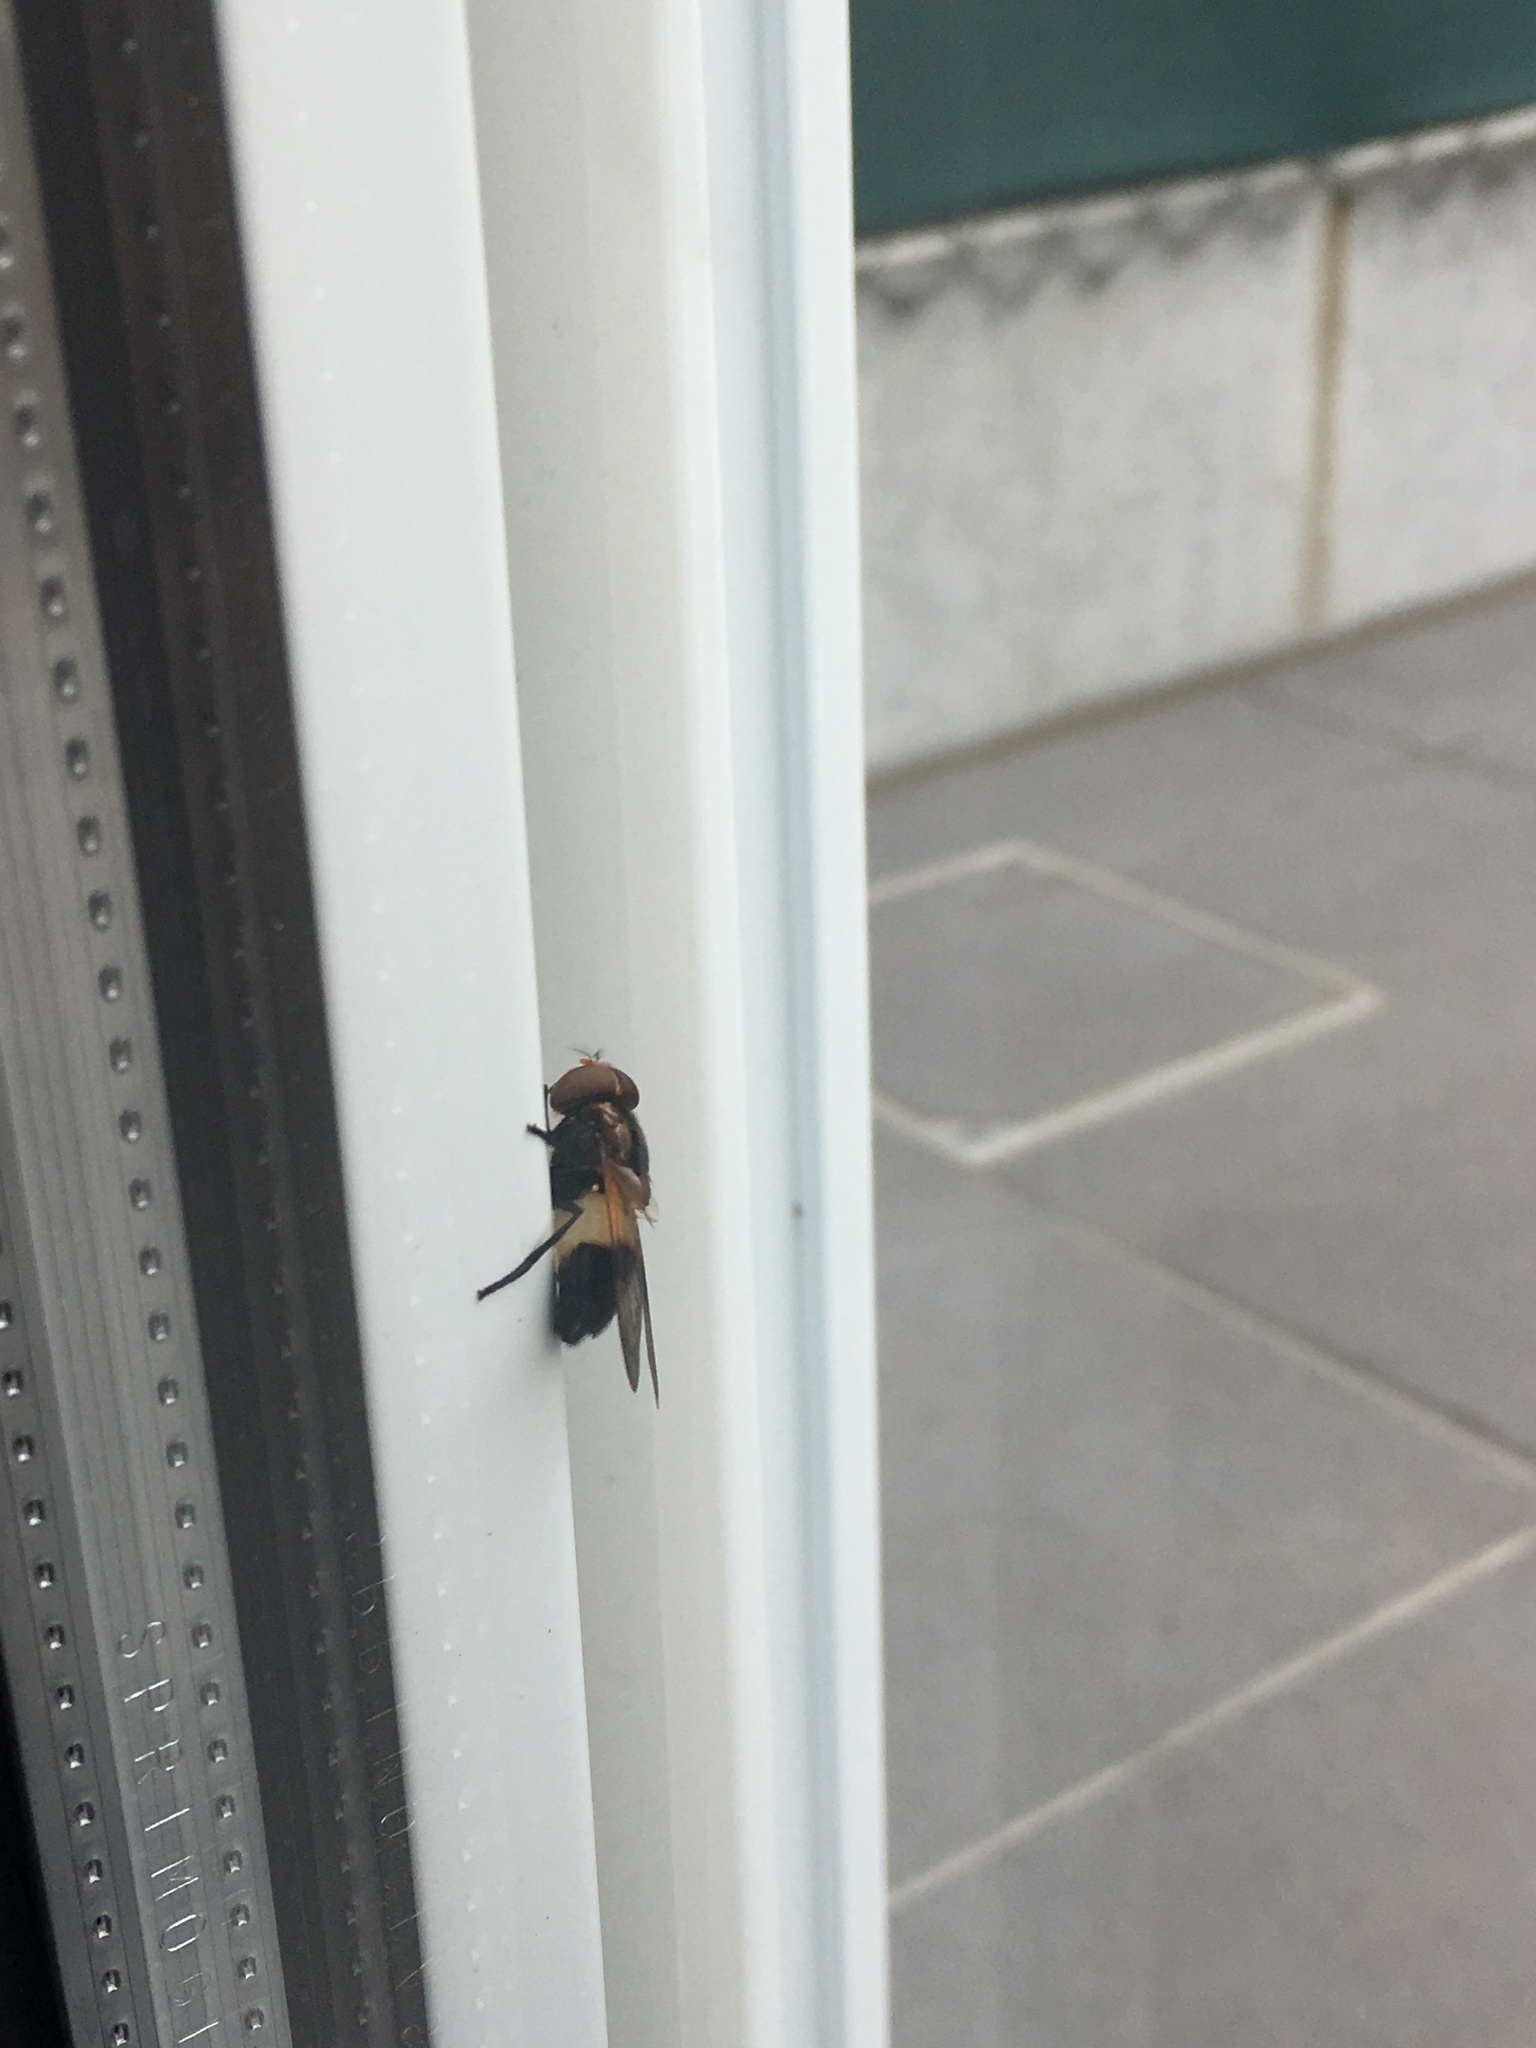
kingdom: Animalia
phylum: Arthropoda
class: Insecta
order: Diptera
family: Syrphidae
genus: Volucella
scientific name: Volucella pellucens
